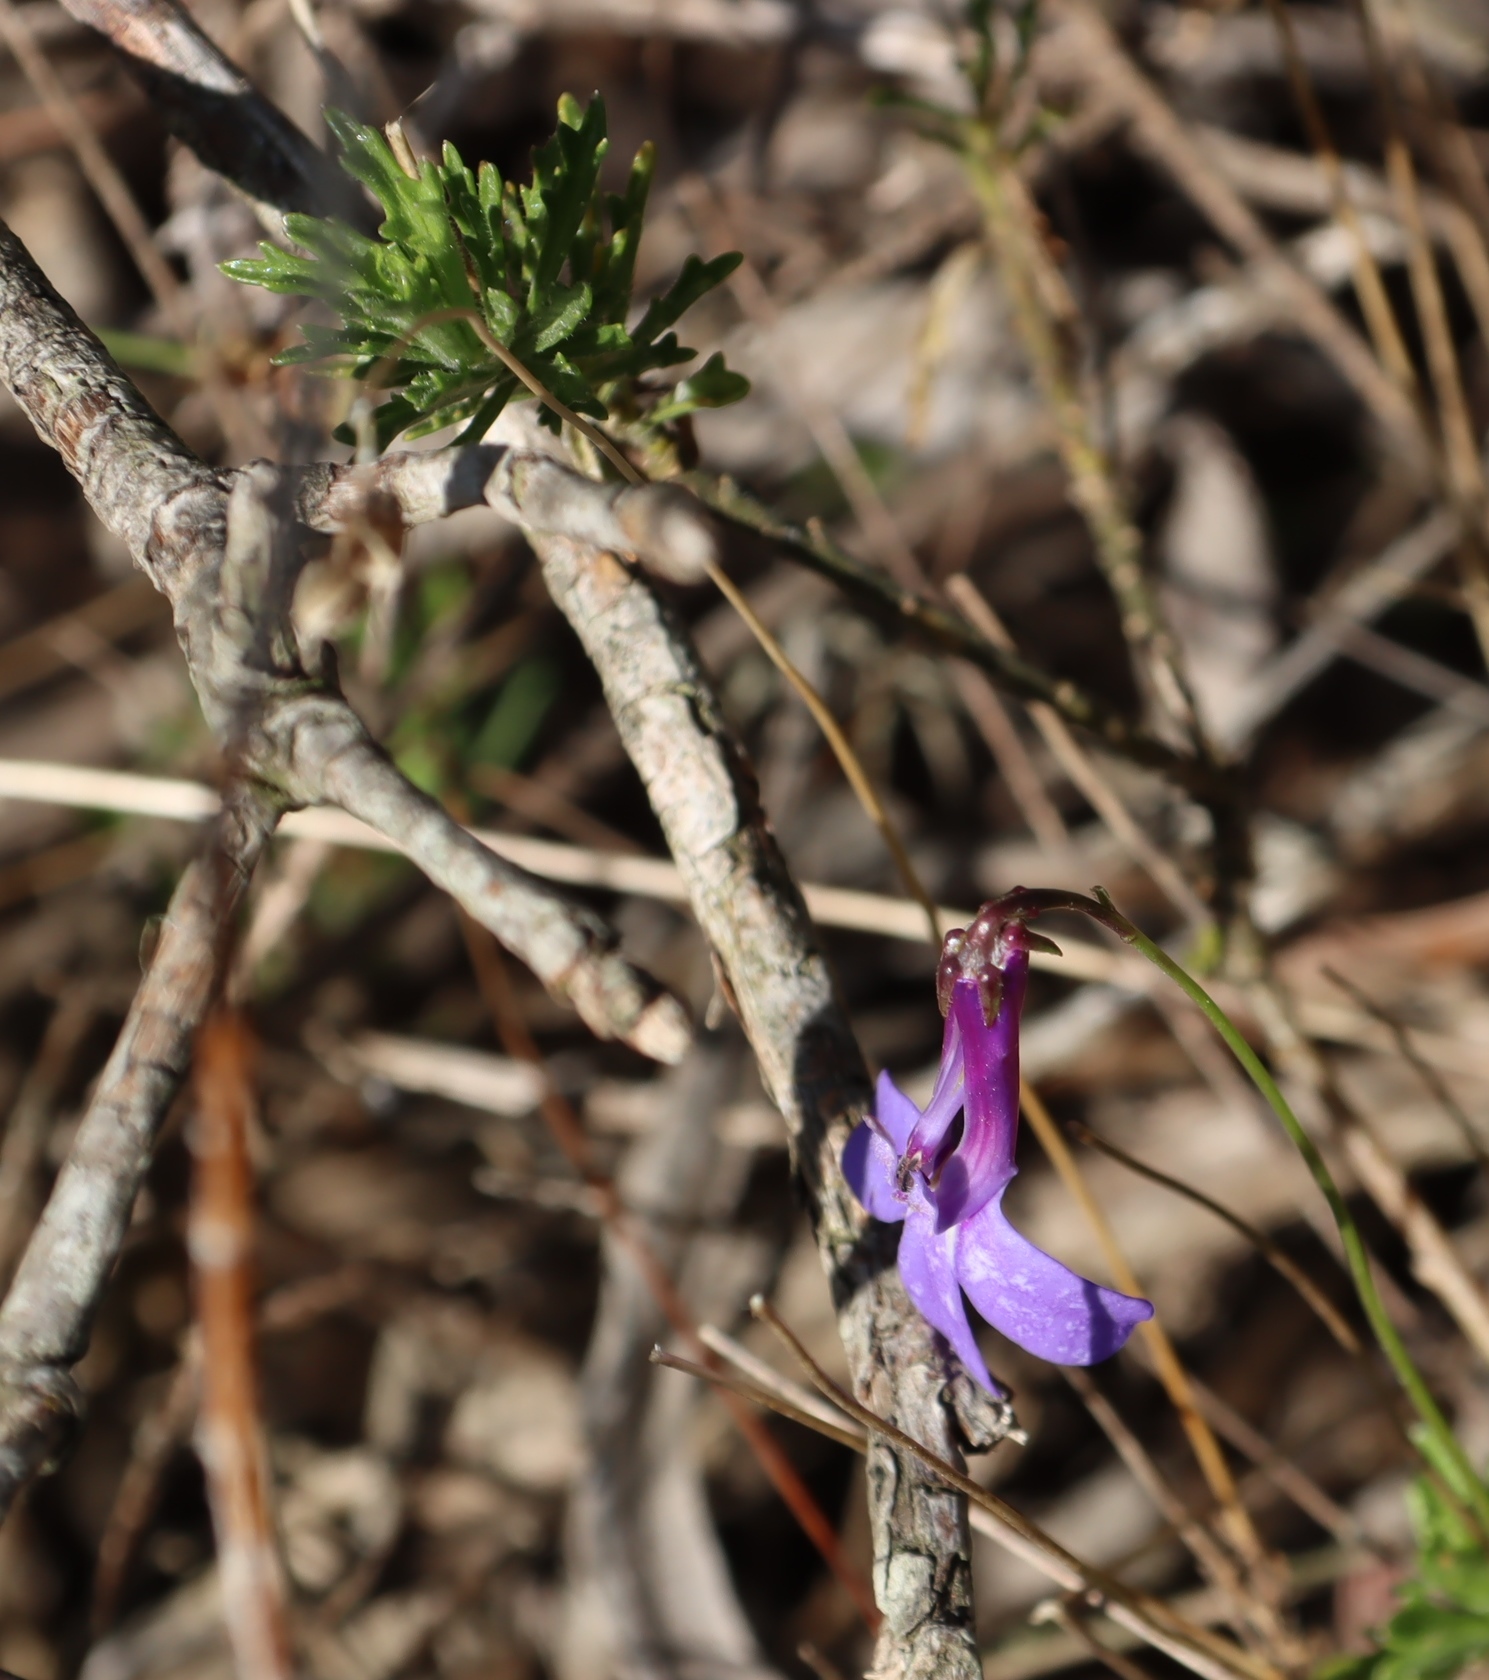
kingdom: Plantae
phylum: Tracheophyta
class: Magnoliopsida
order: Asterales
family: Campanulaceae
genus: Lobelia
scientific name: Lobelia coronopifolia
